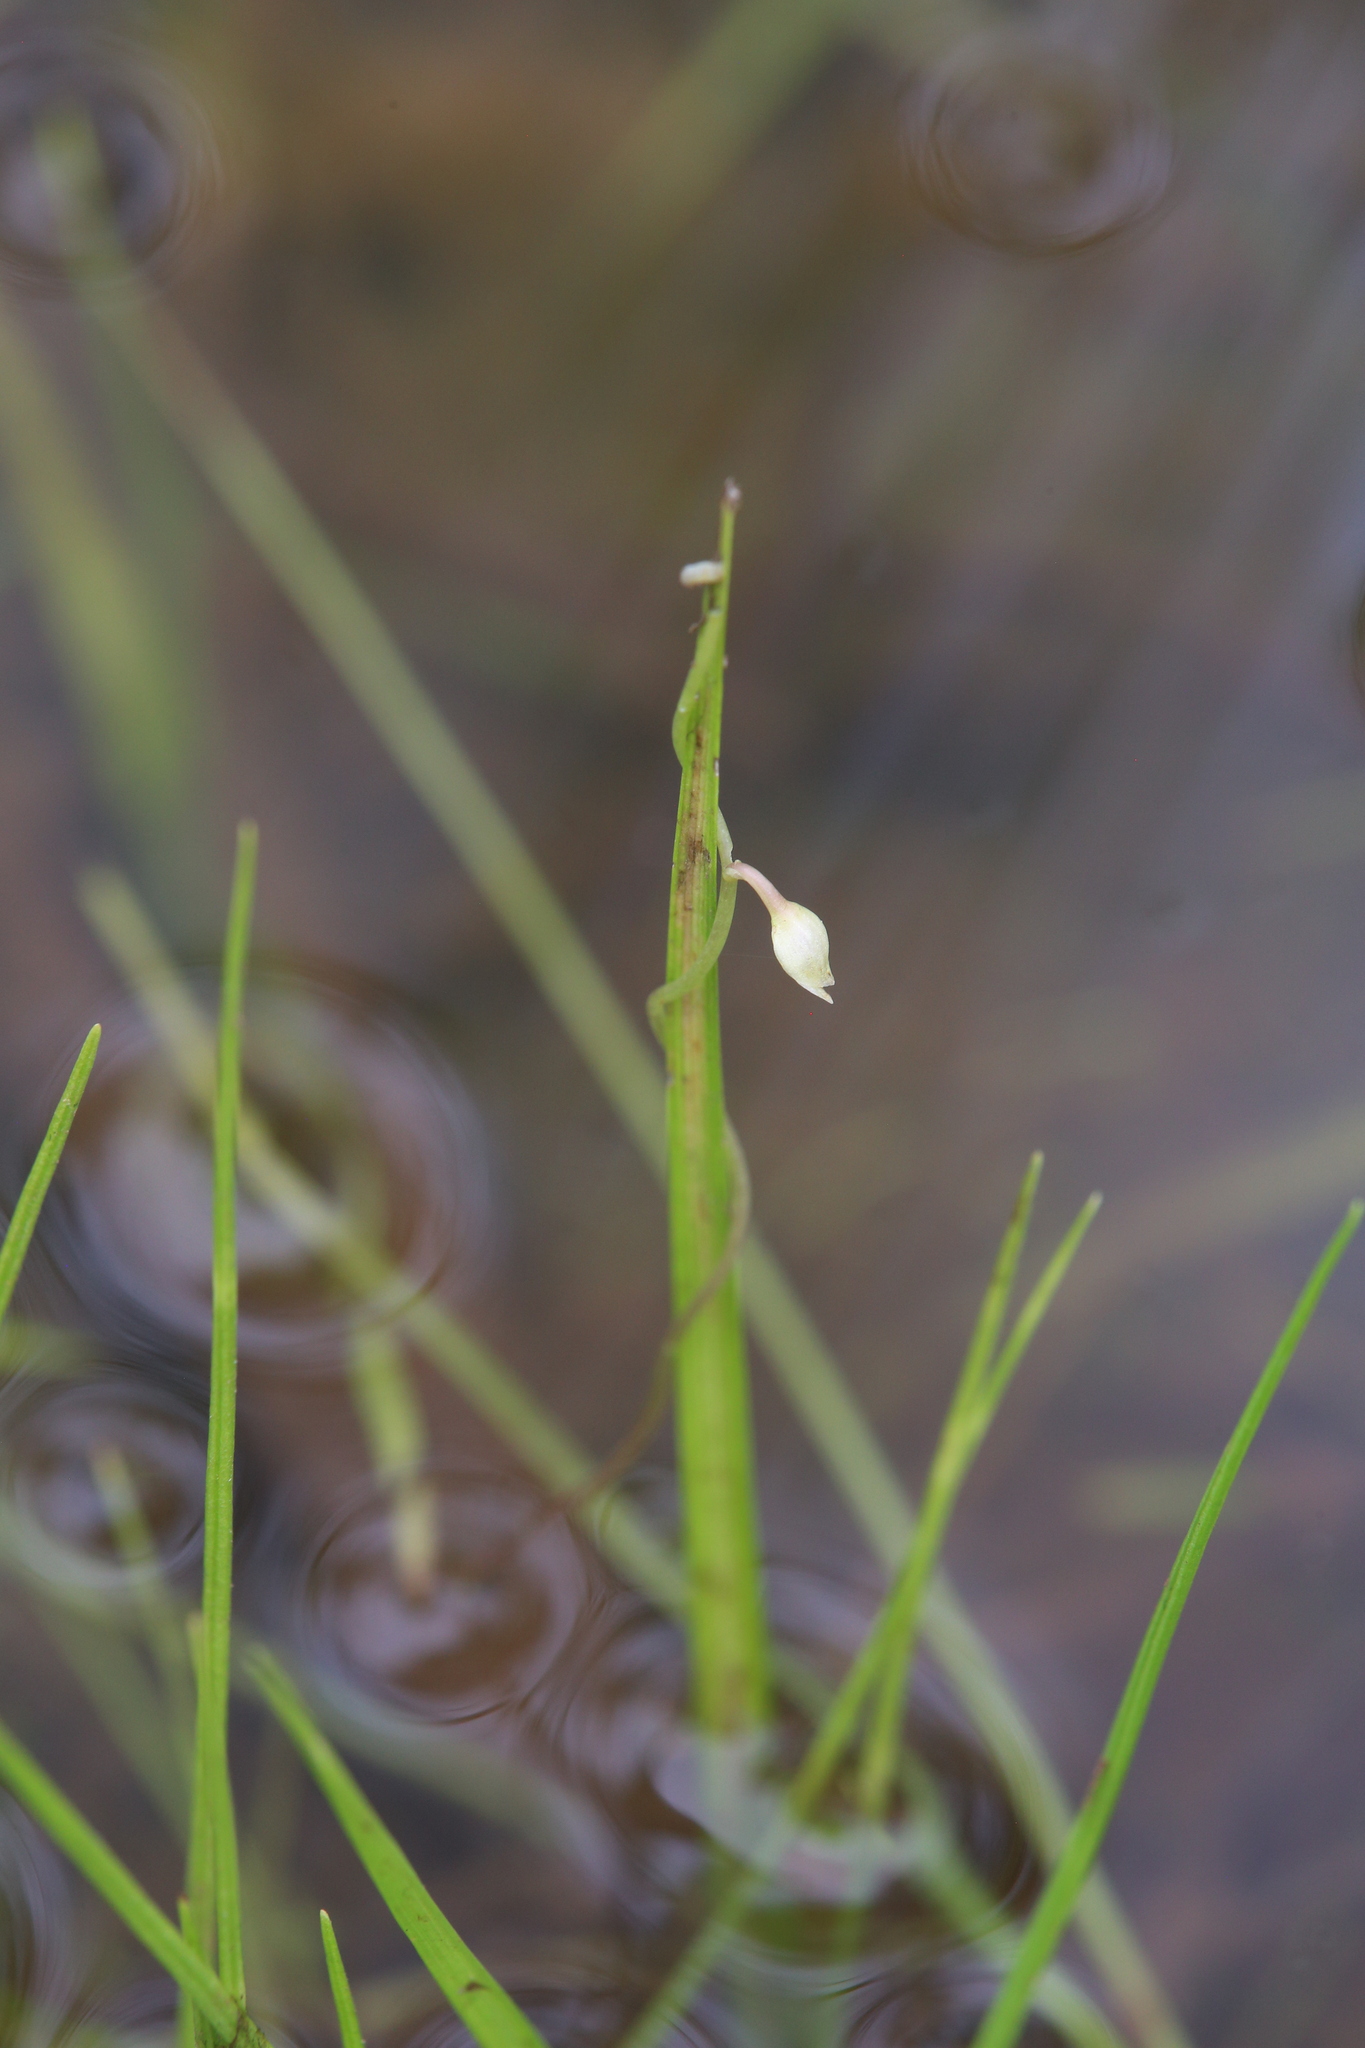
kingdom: Plantae
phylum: Tracheophyta
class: Magnoliopsida
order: Lamiales
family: Lentibulariaceae
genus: Utricularia
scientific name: Utricularia foveolata
